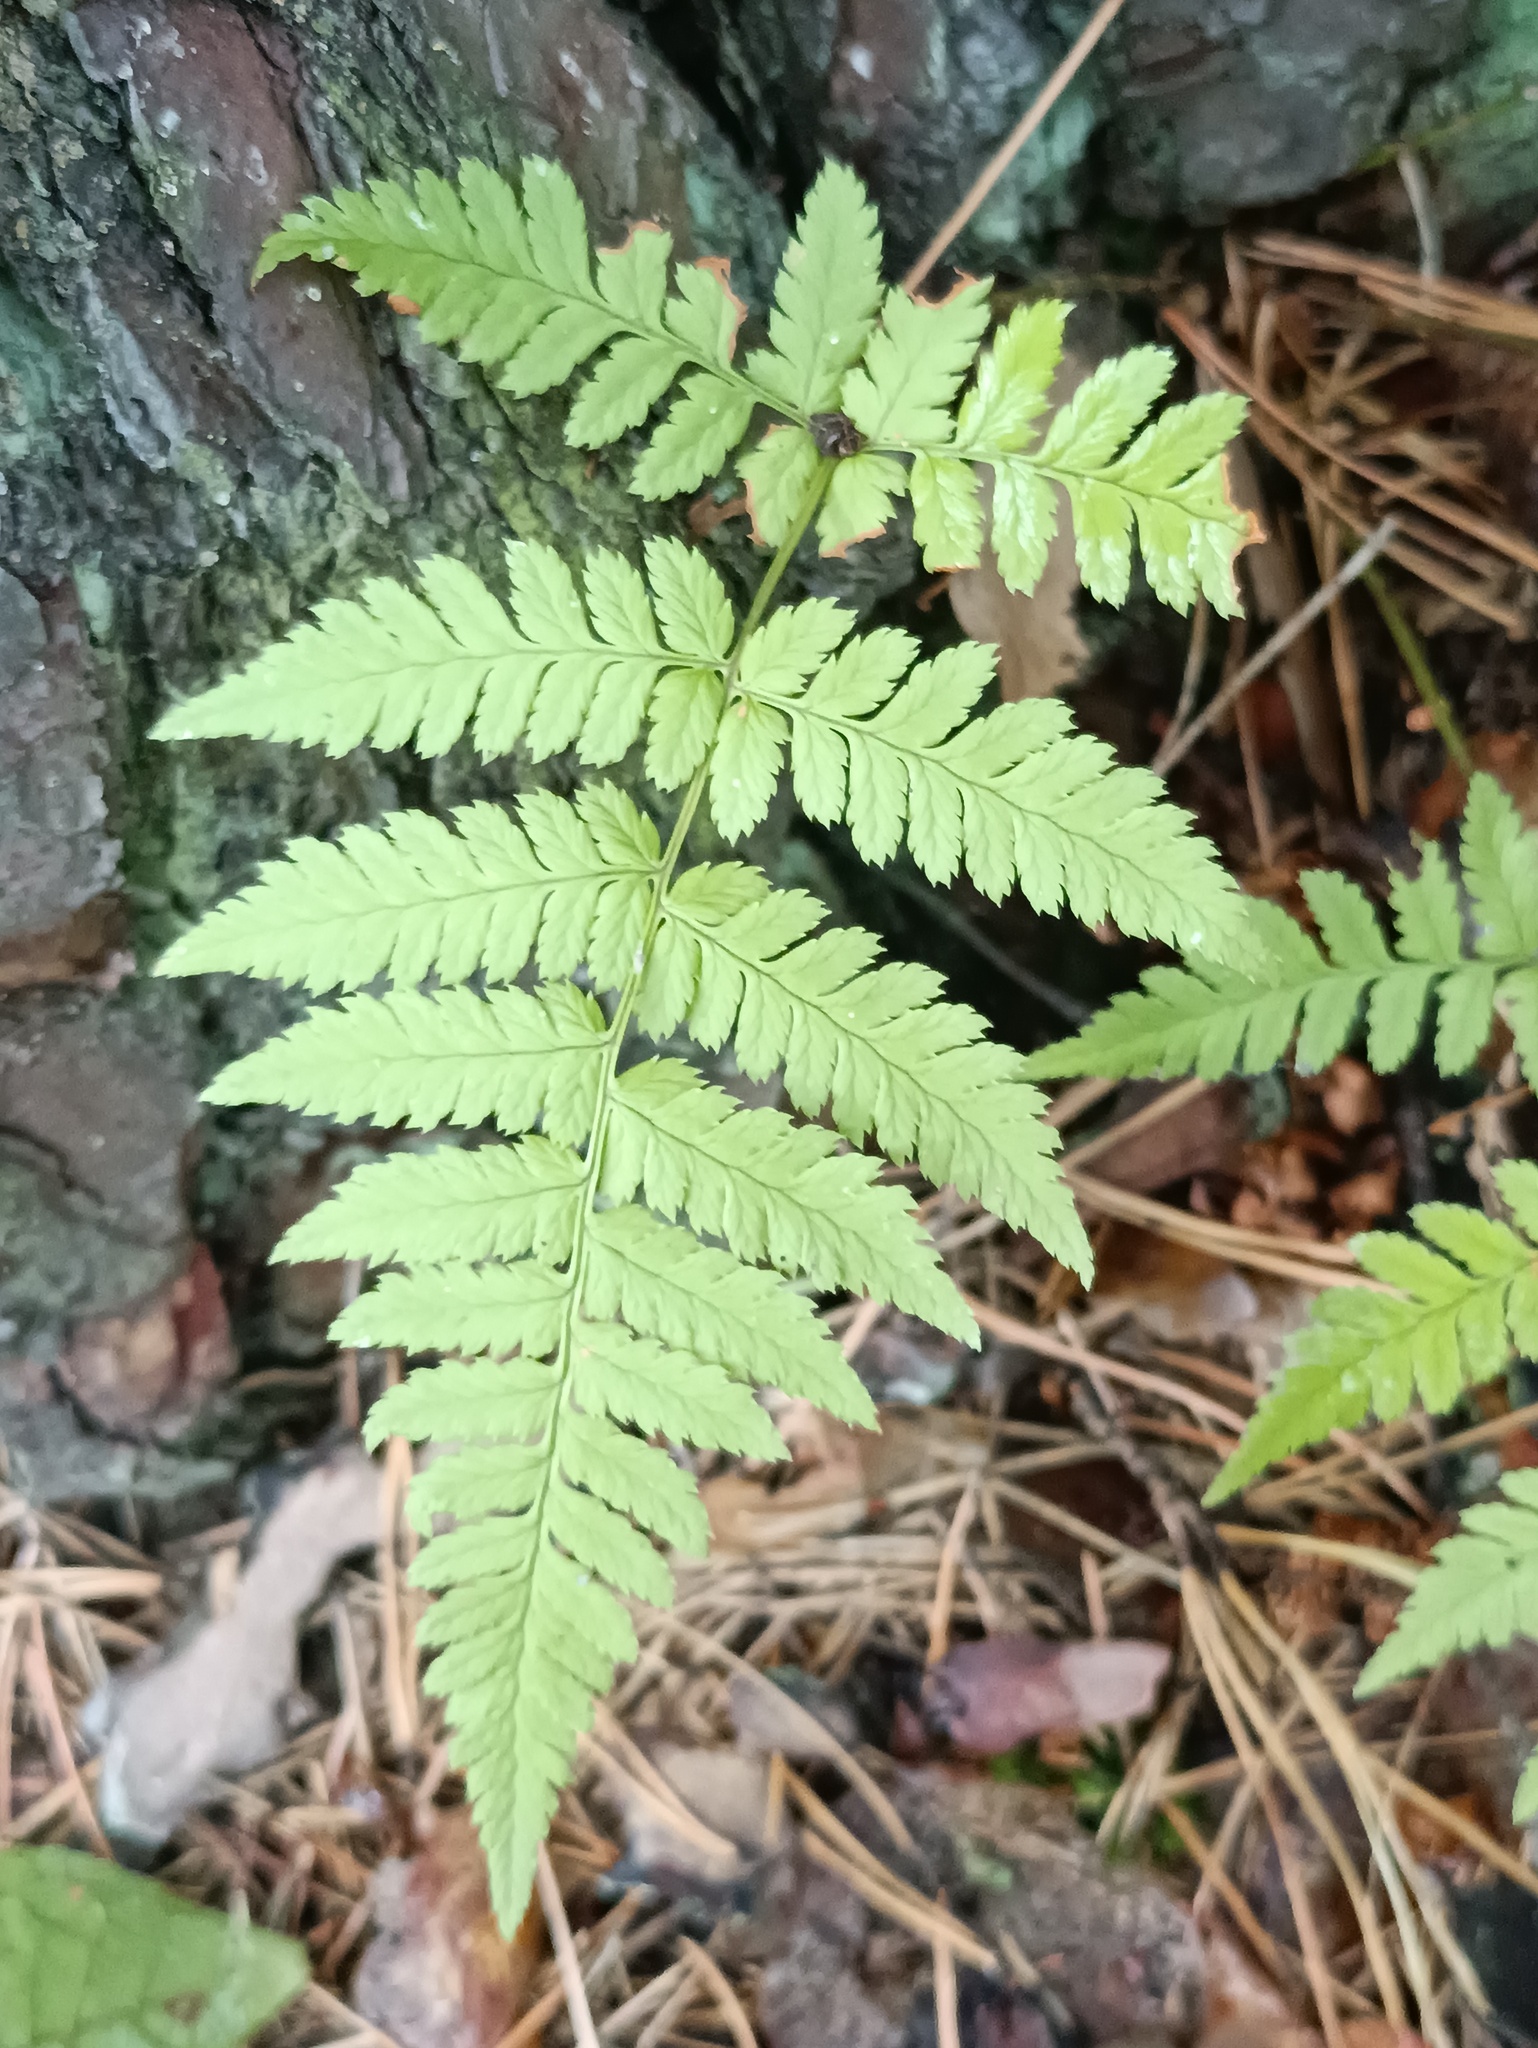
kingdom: Plantae
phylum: Tracheophyta
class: Polypodiopsida
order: Polypodiales
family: Dryopteridaceae
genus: Dryopteris
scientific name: Dryopteris carthusiana
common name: Narrow buckler-fern
